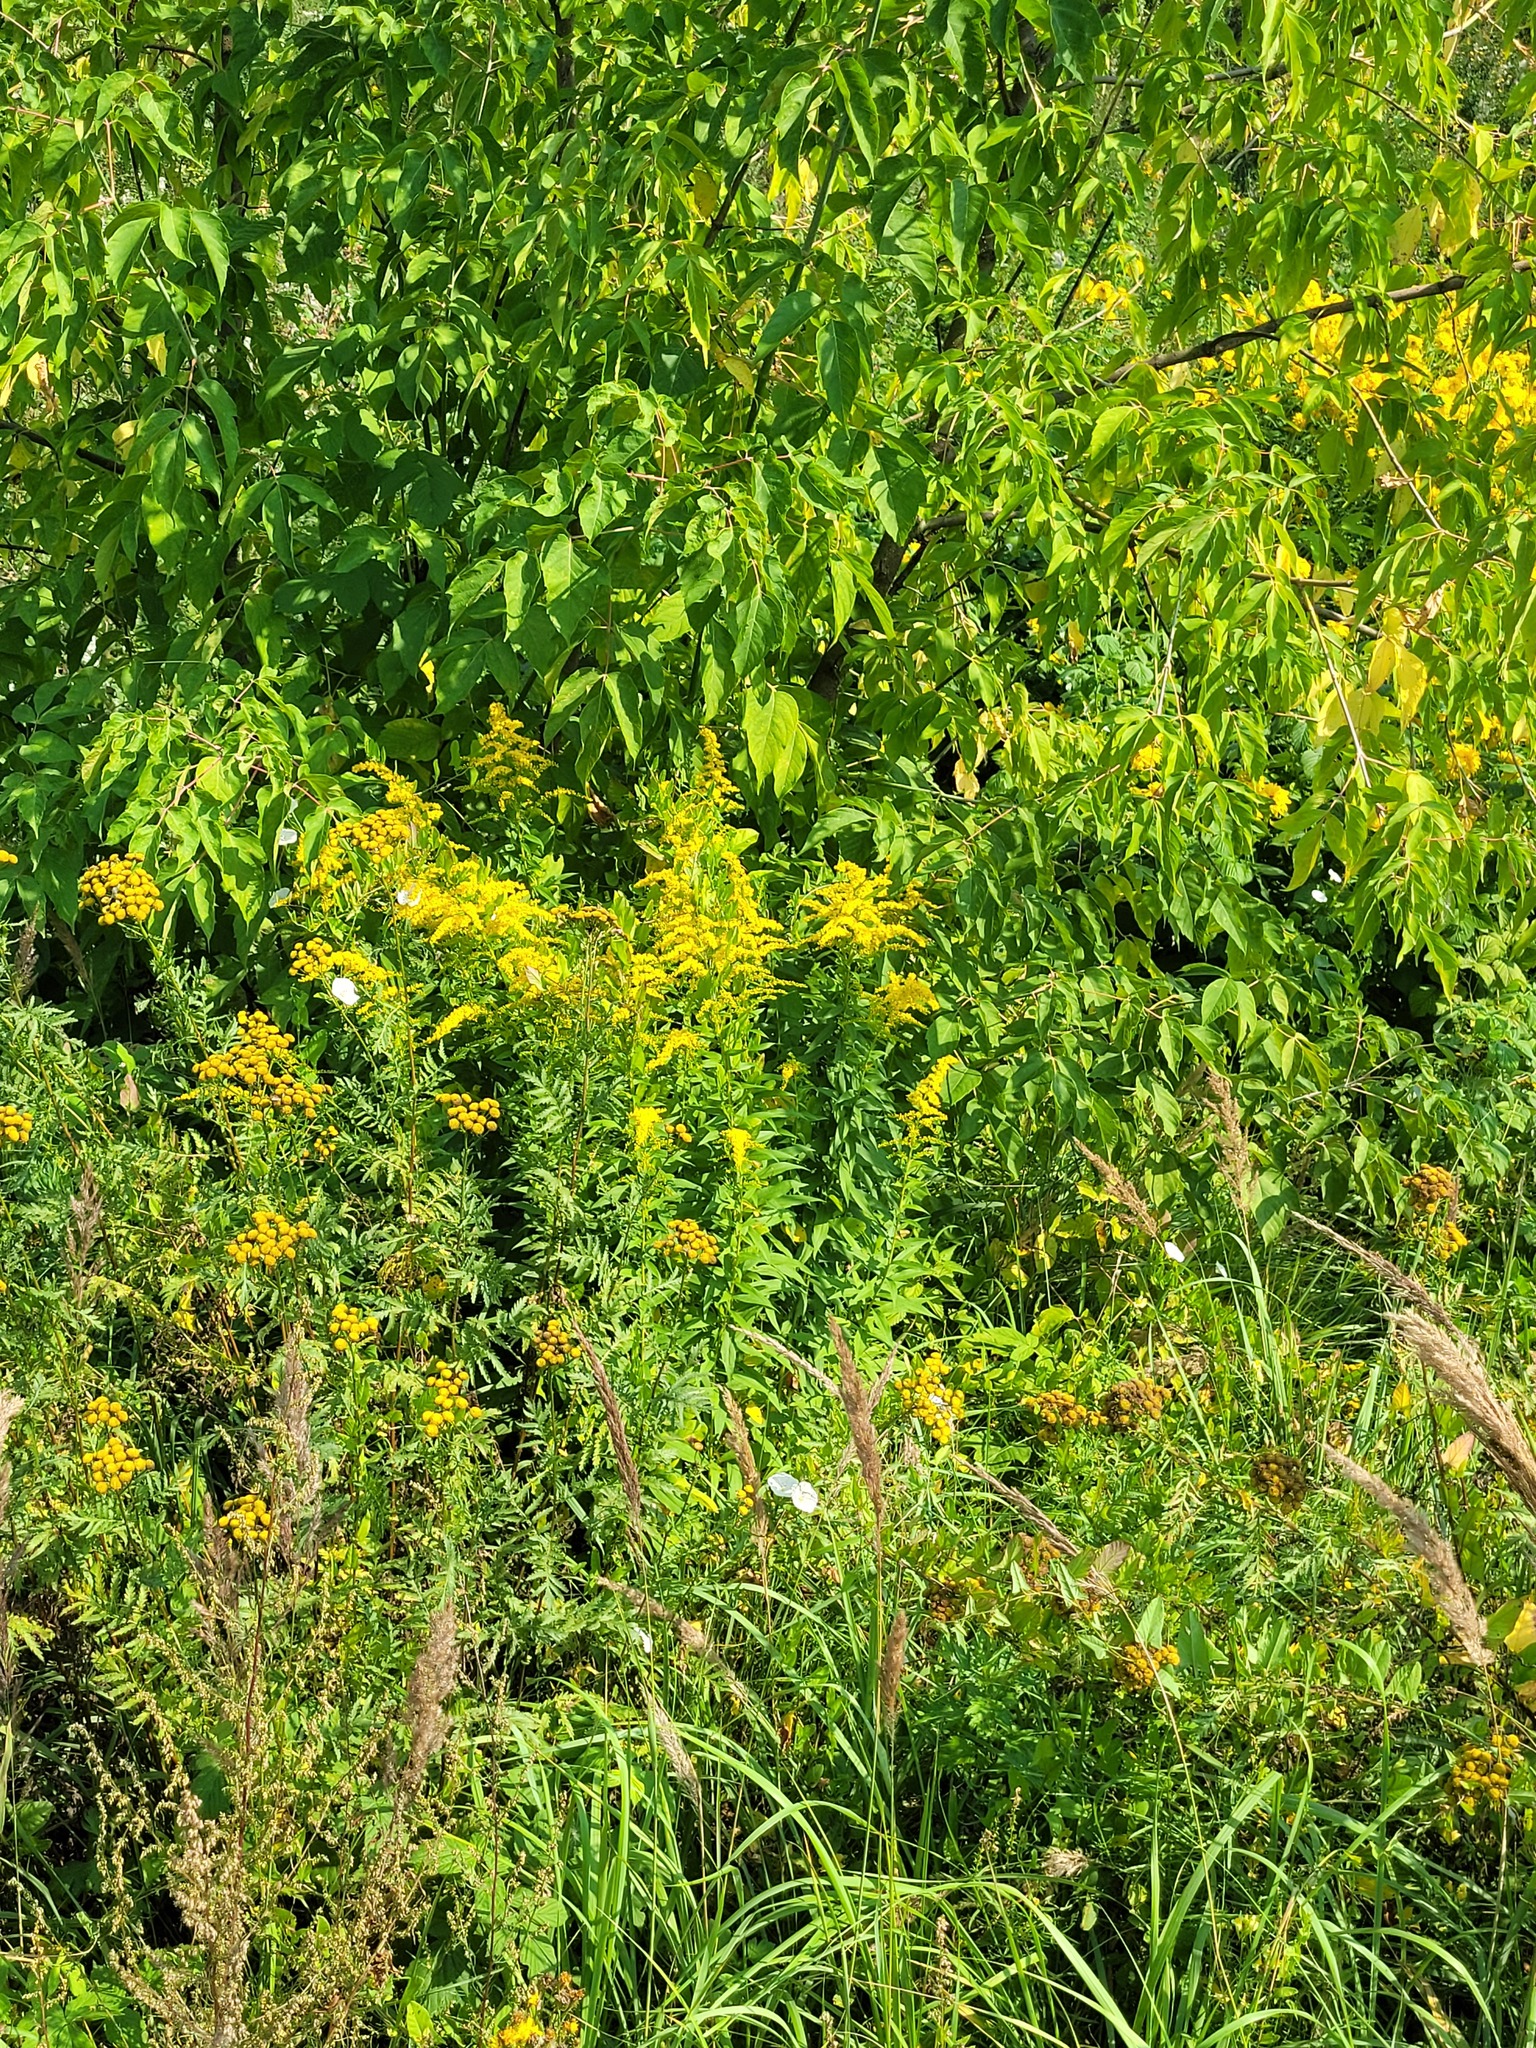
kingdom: Plantae
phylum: Tracheophyta
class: Magnoliopsida
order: Asterales
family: Asteraceae
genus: Solidago
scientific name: Solidago canadensis
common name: Canada goldenrod
